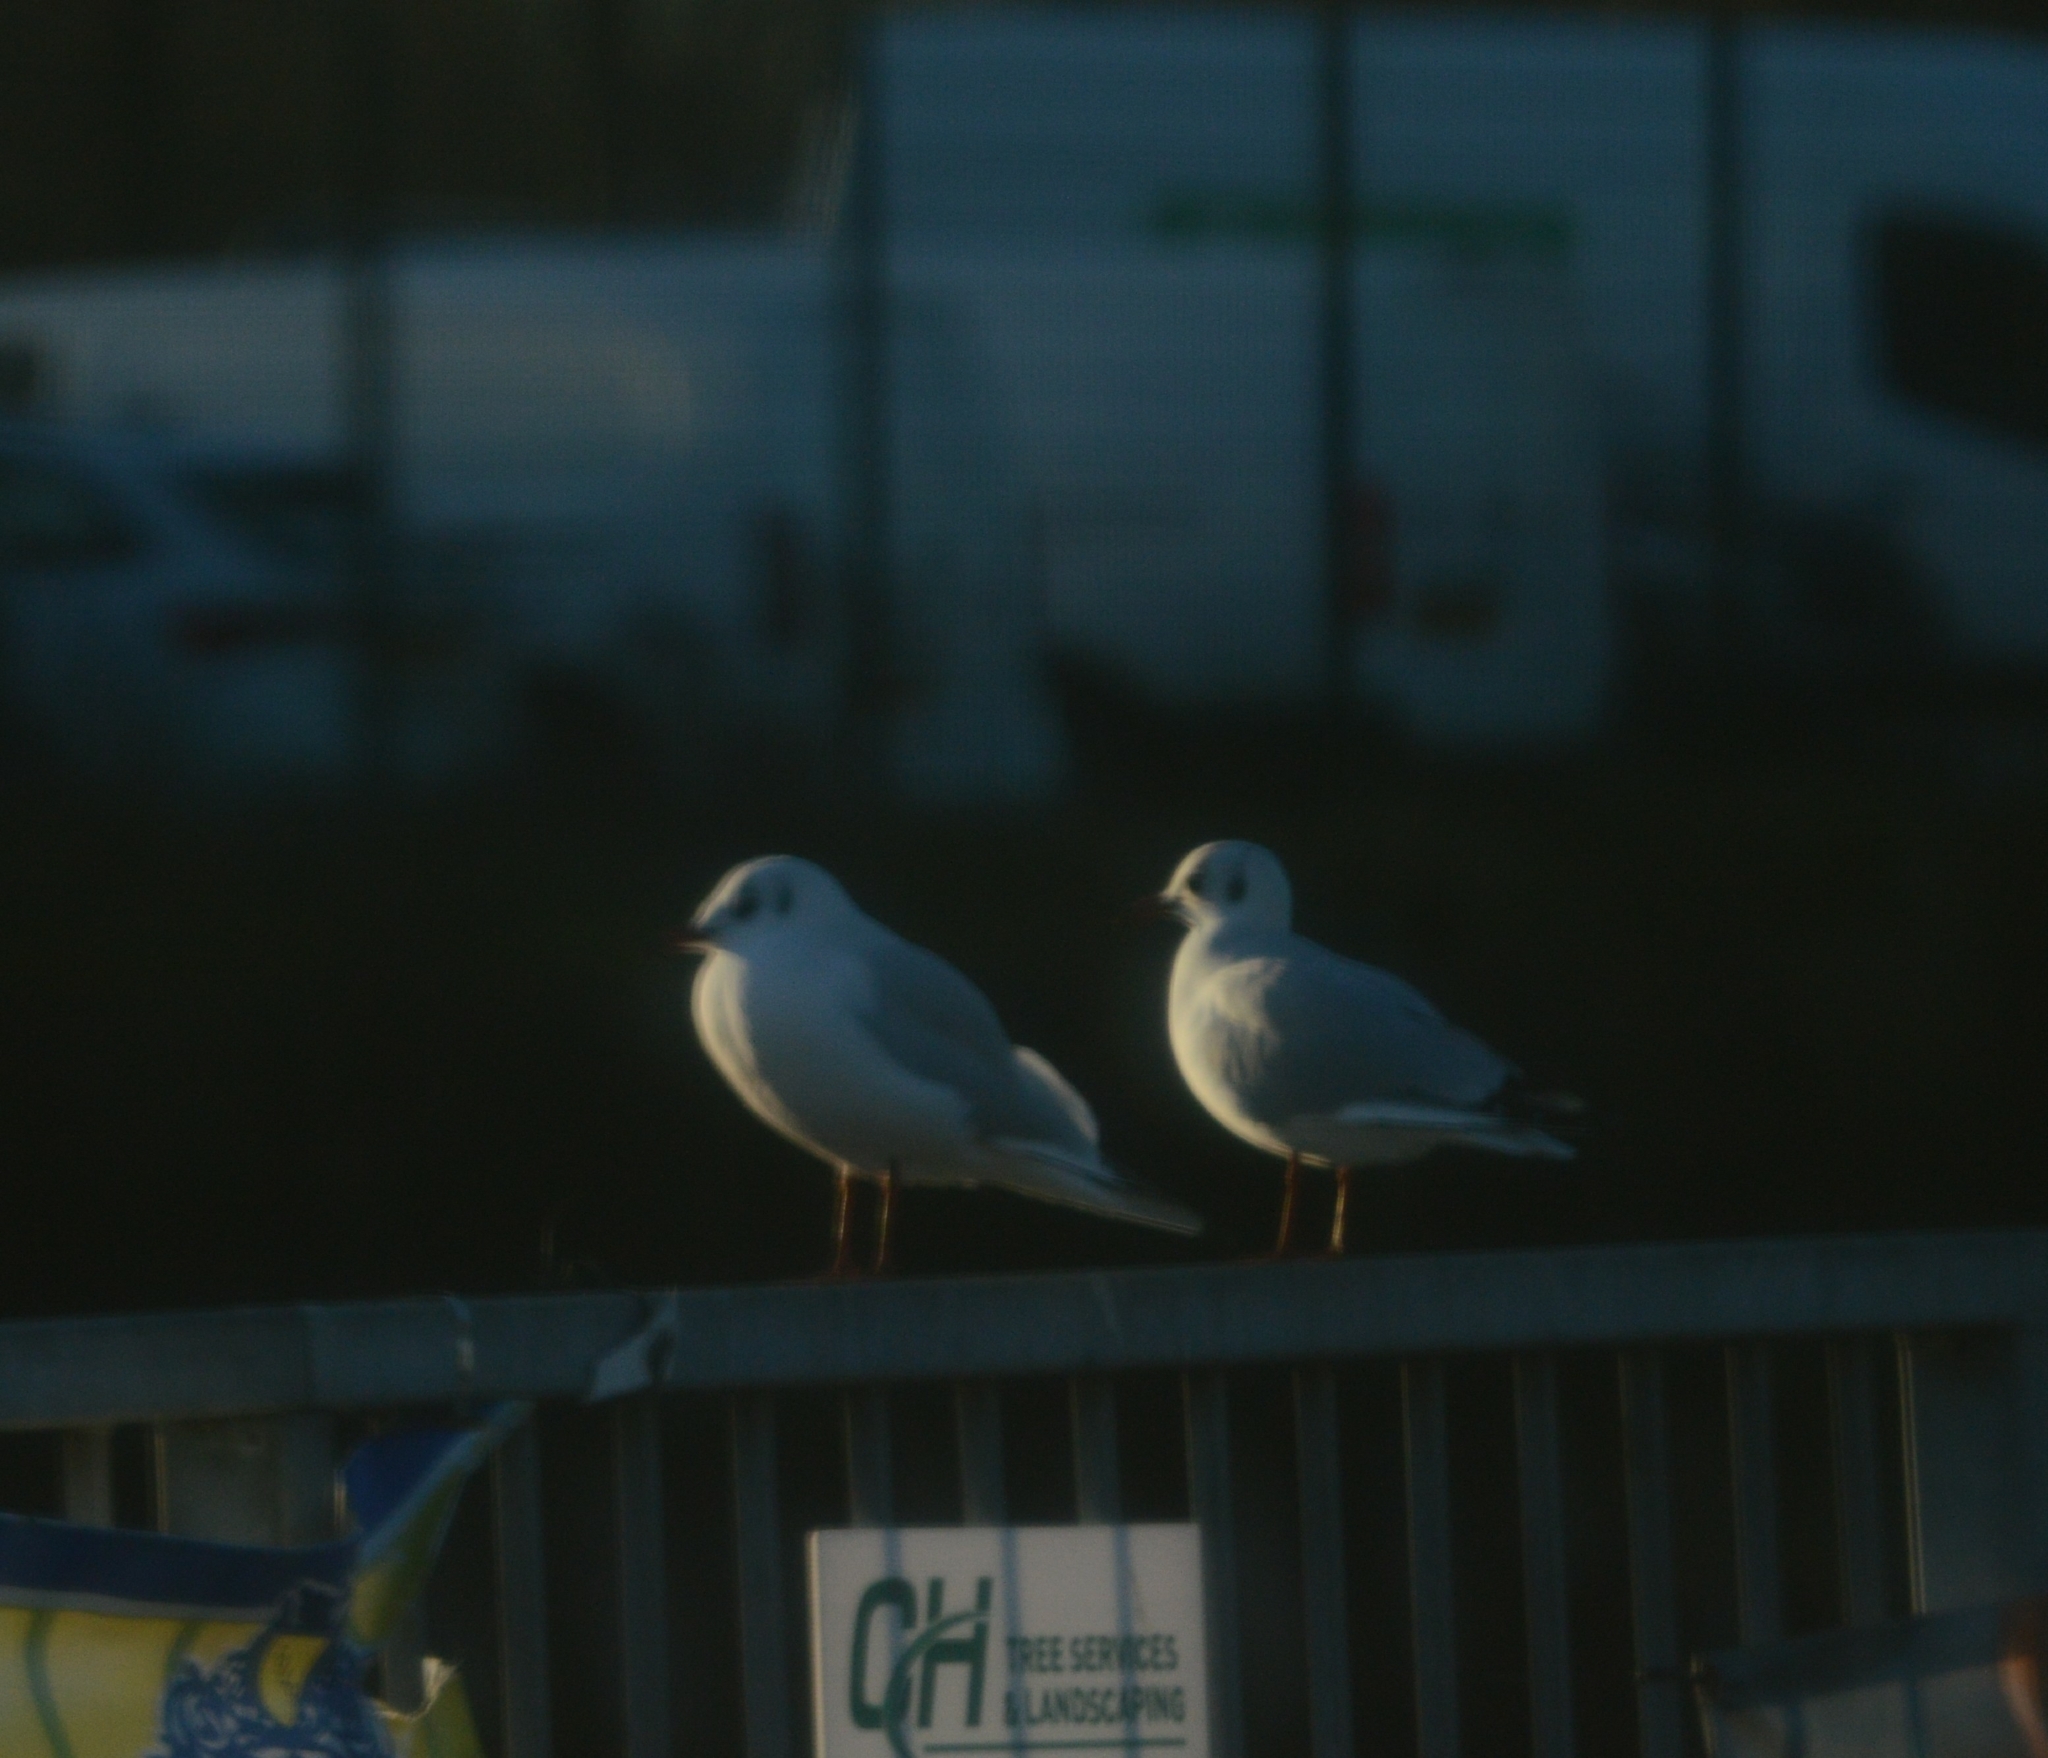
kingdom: Animalia
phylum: Chordata
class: Aves
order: Charadriiformes
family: Laridae
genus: Chroicocephalus
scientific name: Chroicocephalus ridibundus
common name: Black-headed gull
